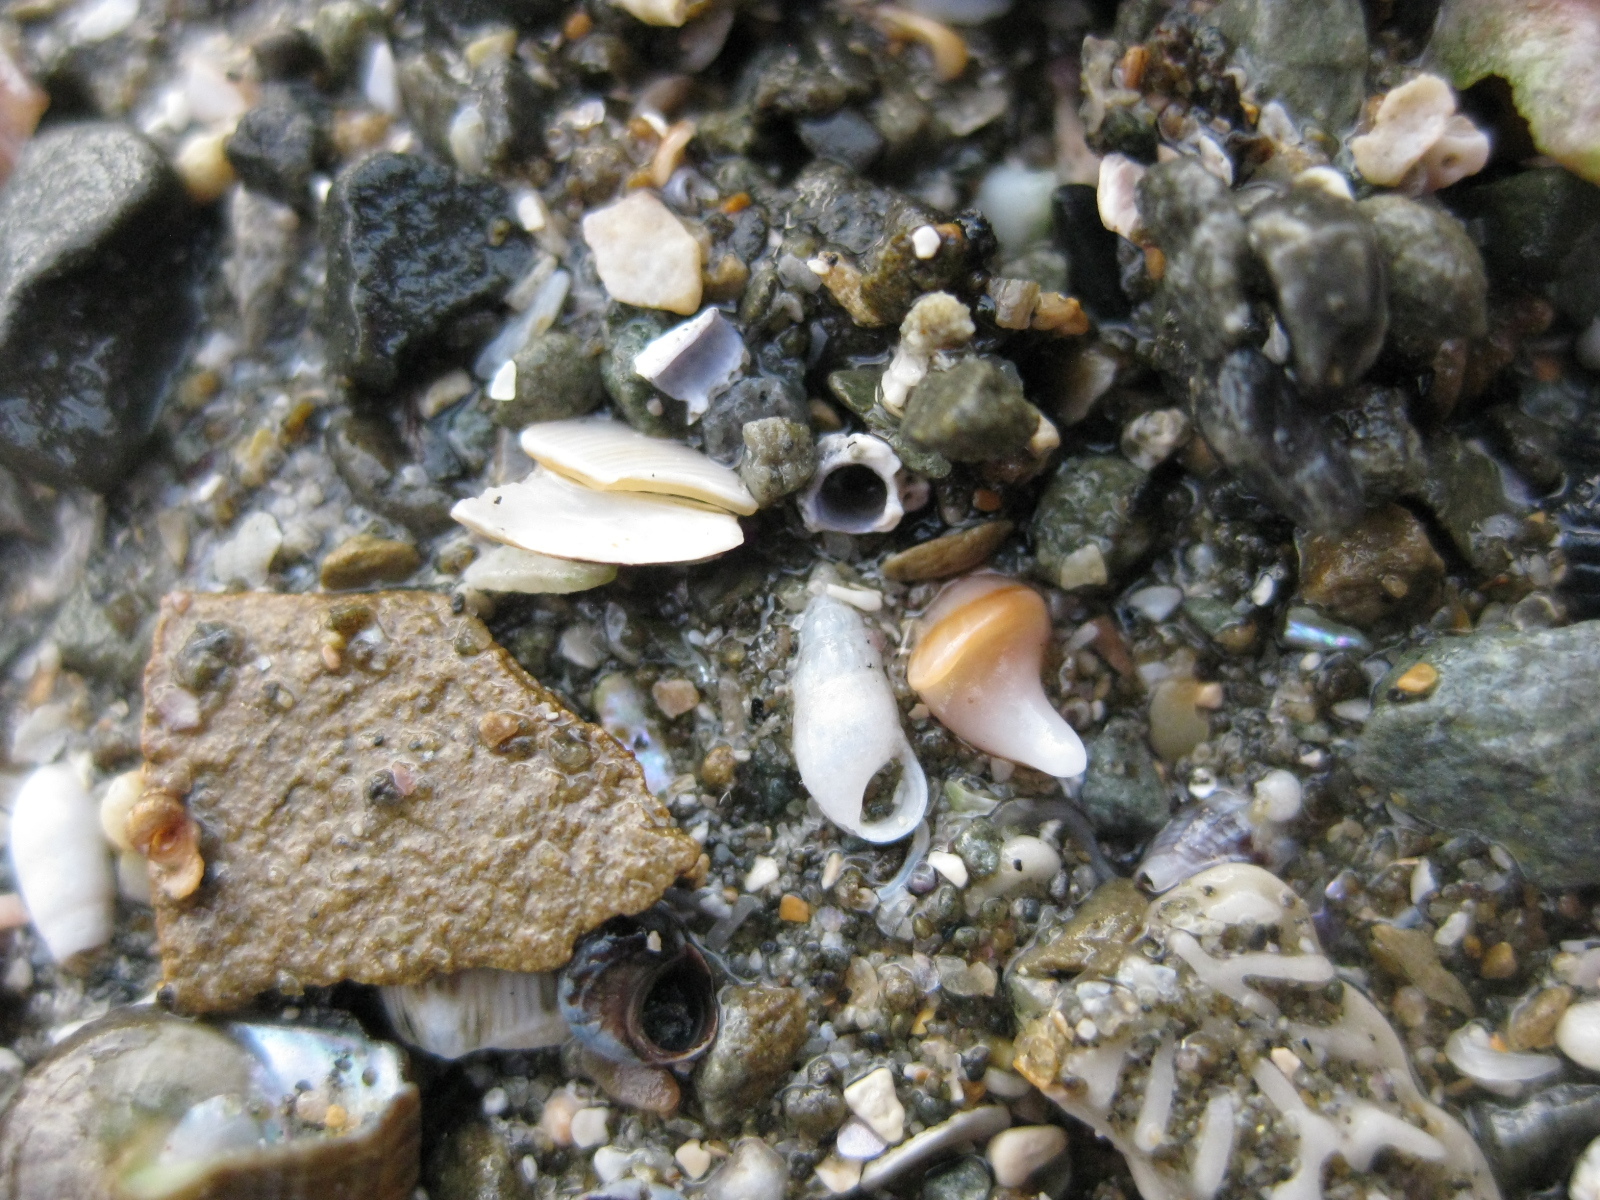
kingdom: Animalia
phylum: Mollusca
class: Gastropoda
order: Littorinimorpha
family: Rissoinidae
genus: Rissoina
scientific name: Rissoina anguina
